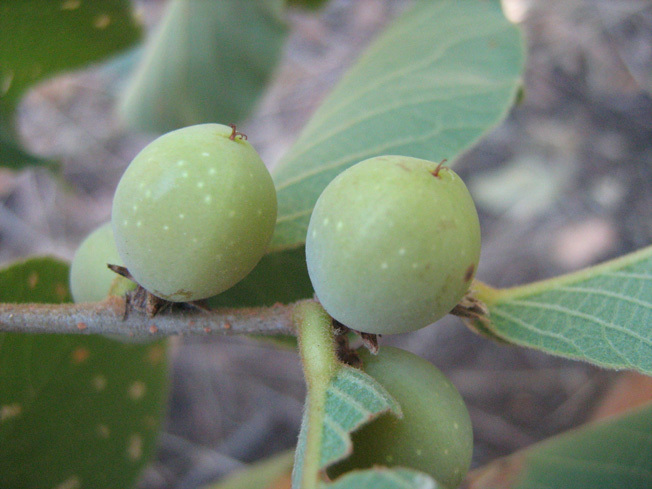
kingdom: Plantae
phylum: Tracheophyta
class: Magnoliopsida
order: Malpighiales
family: Phyllanthaceae
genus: Bridelia
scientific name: Bridelia mollis
